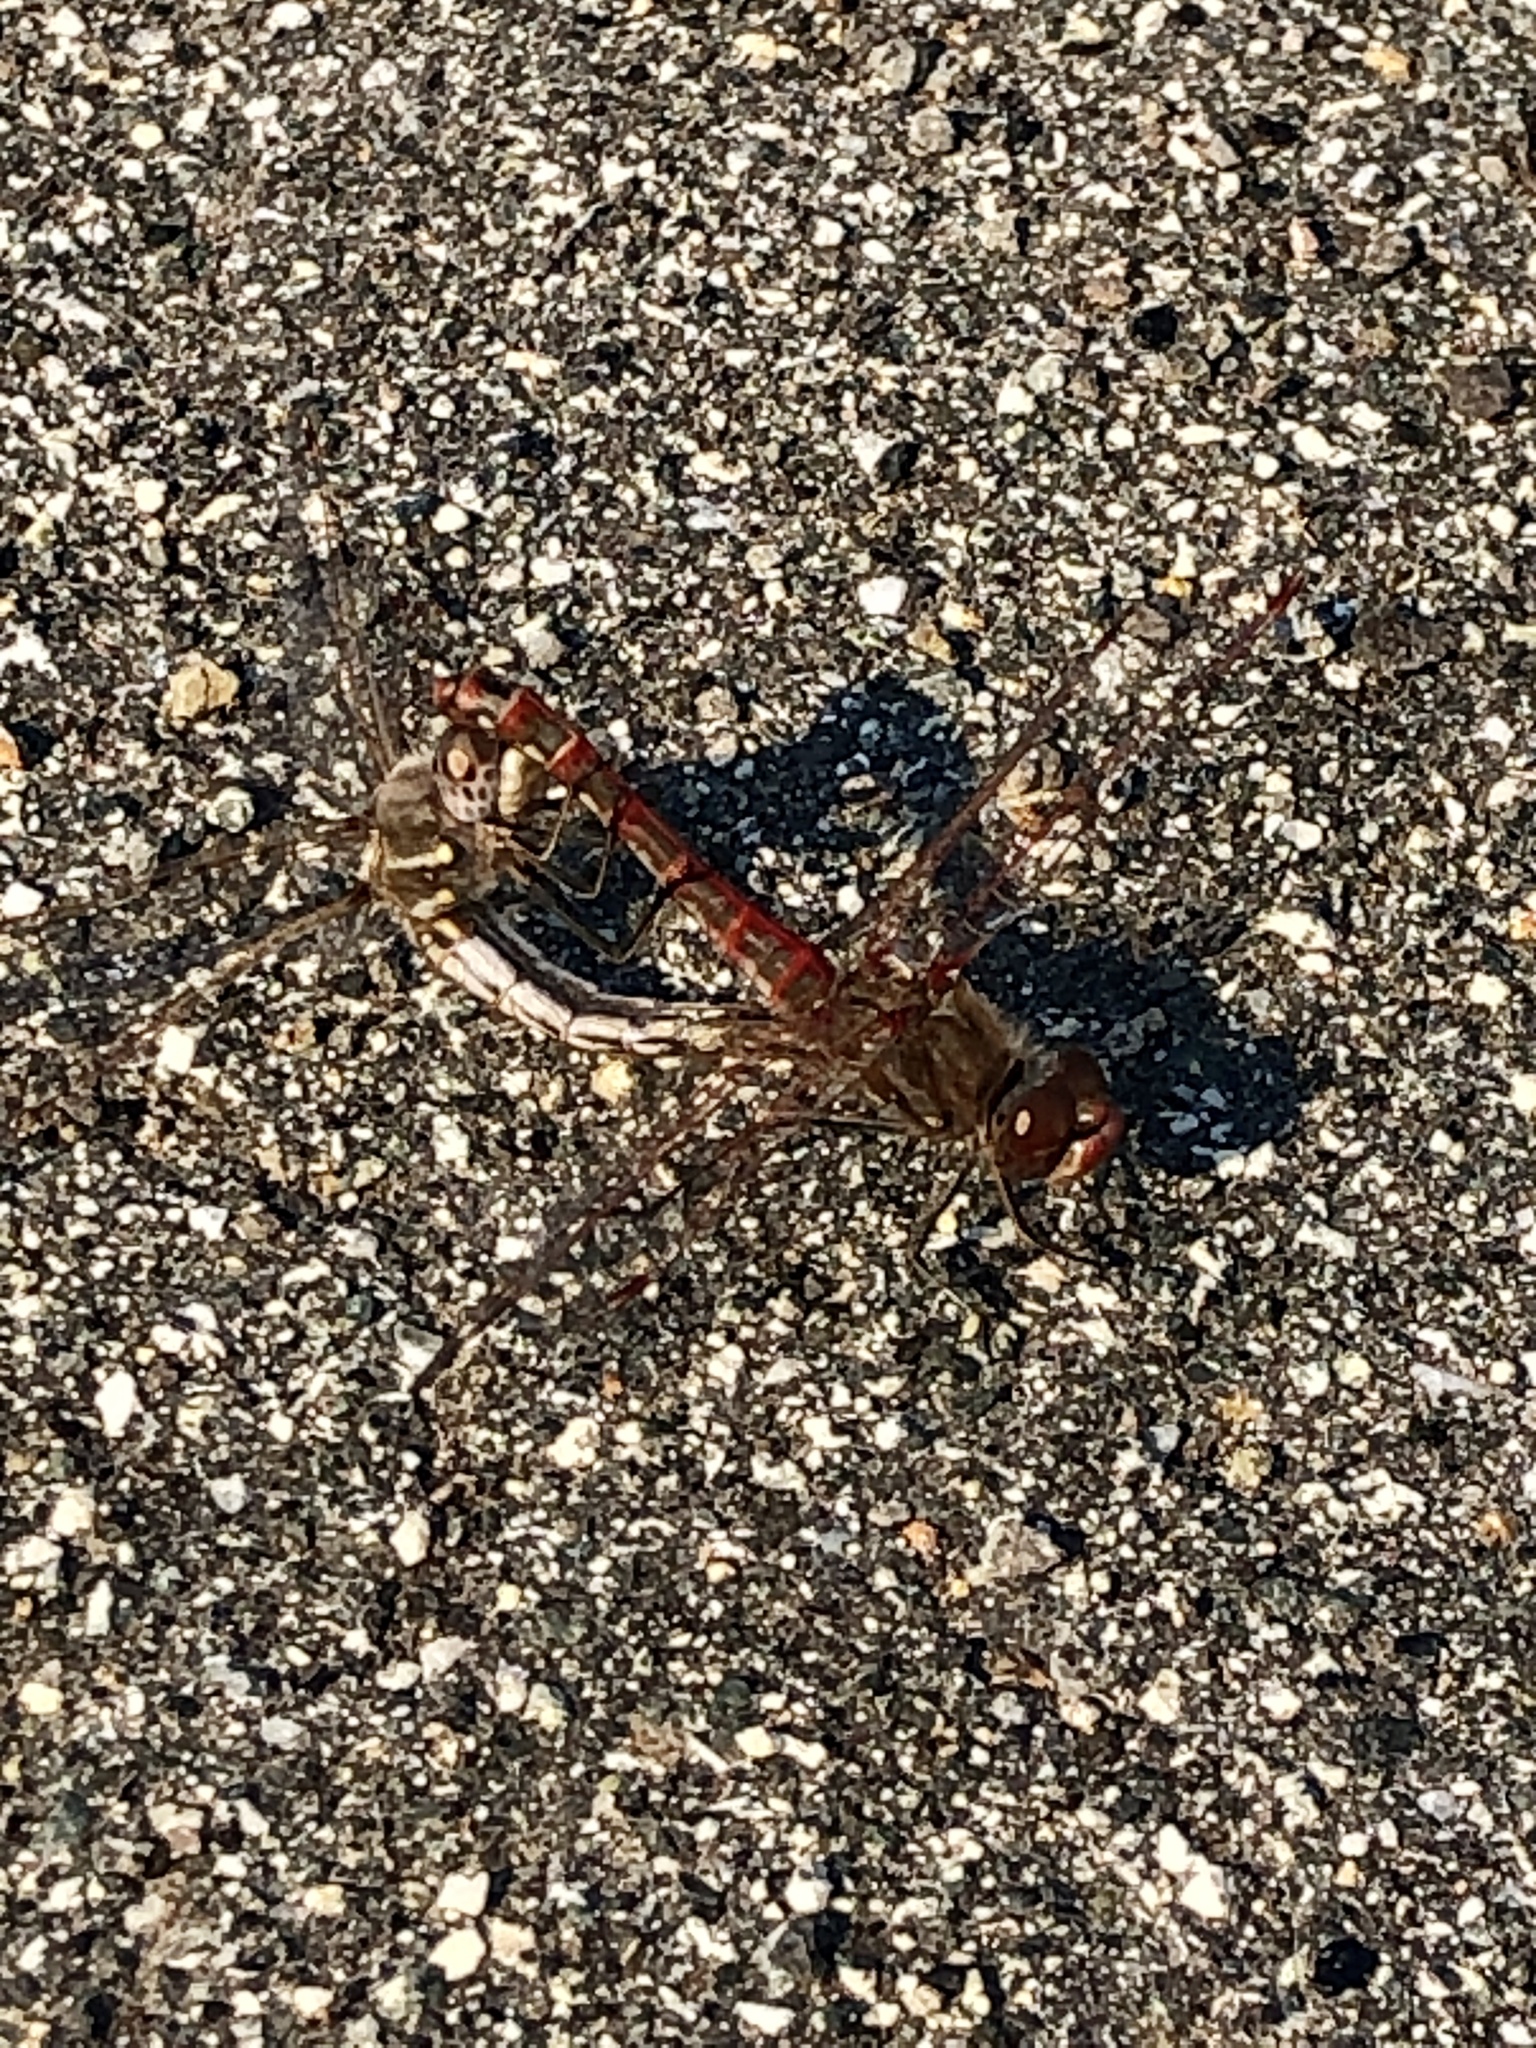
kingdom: Animalia
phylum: Arthropoda
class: Insecta
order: Odonata
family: Libellulidae
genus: Sympetrum
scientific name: Sympetrum corruptum
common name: Variegated meadowhawk
